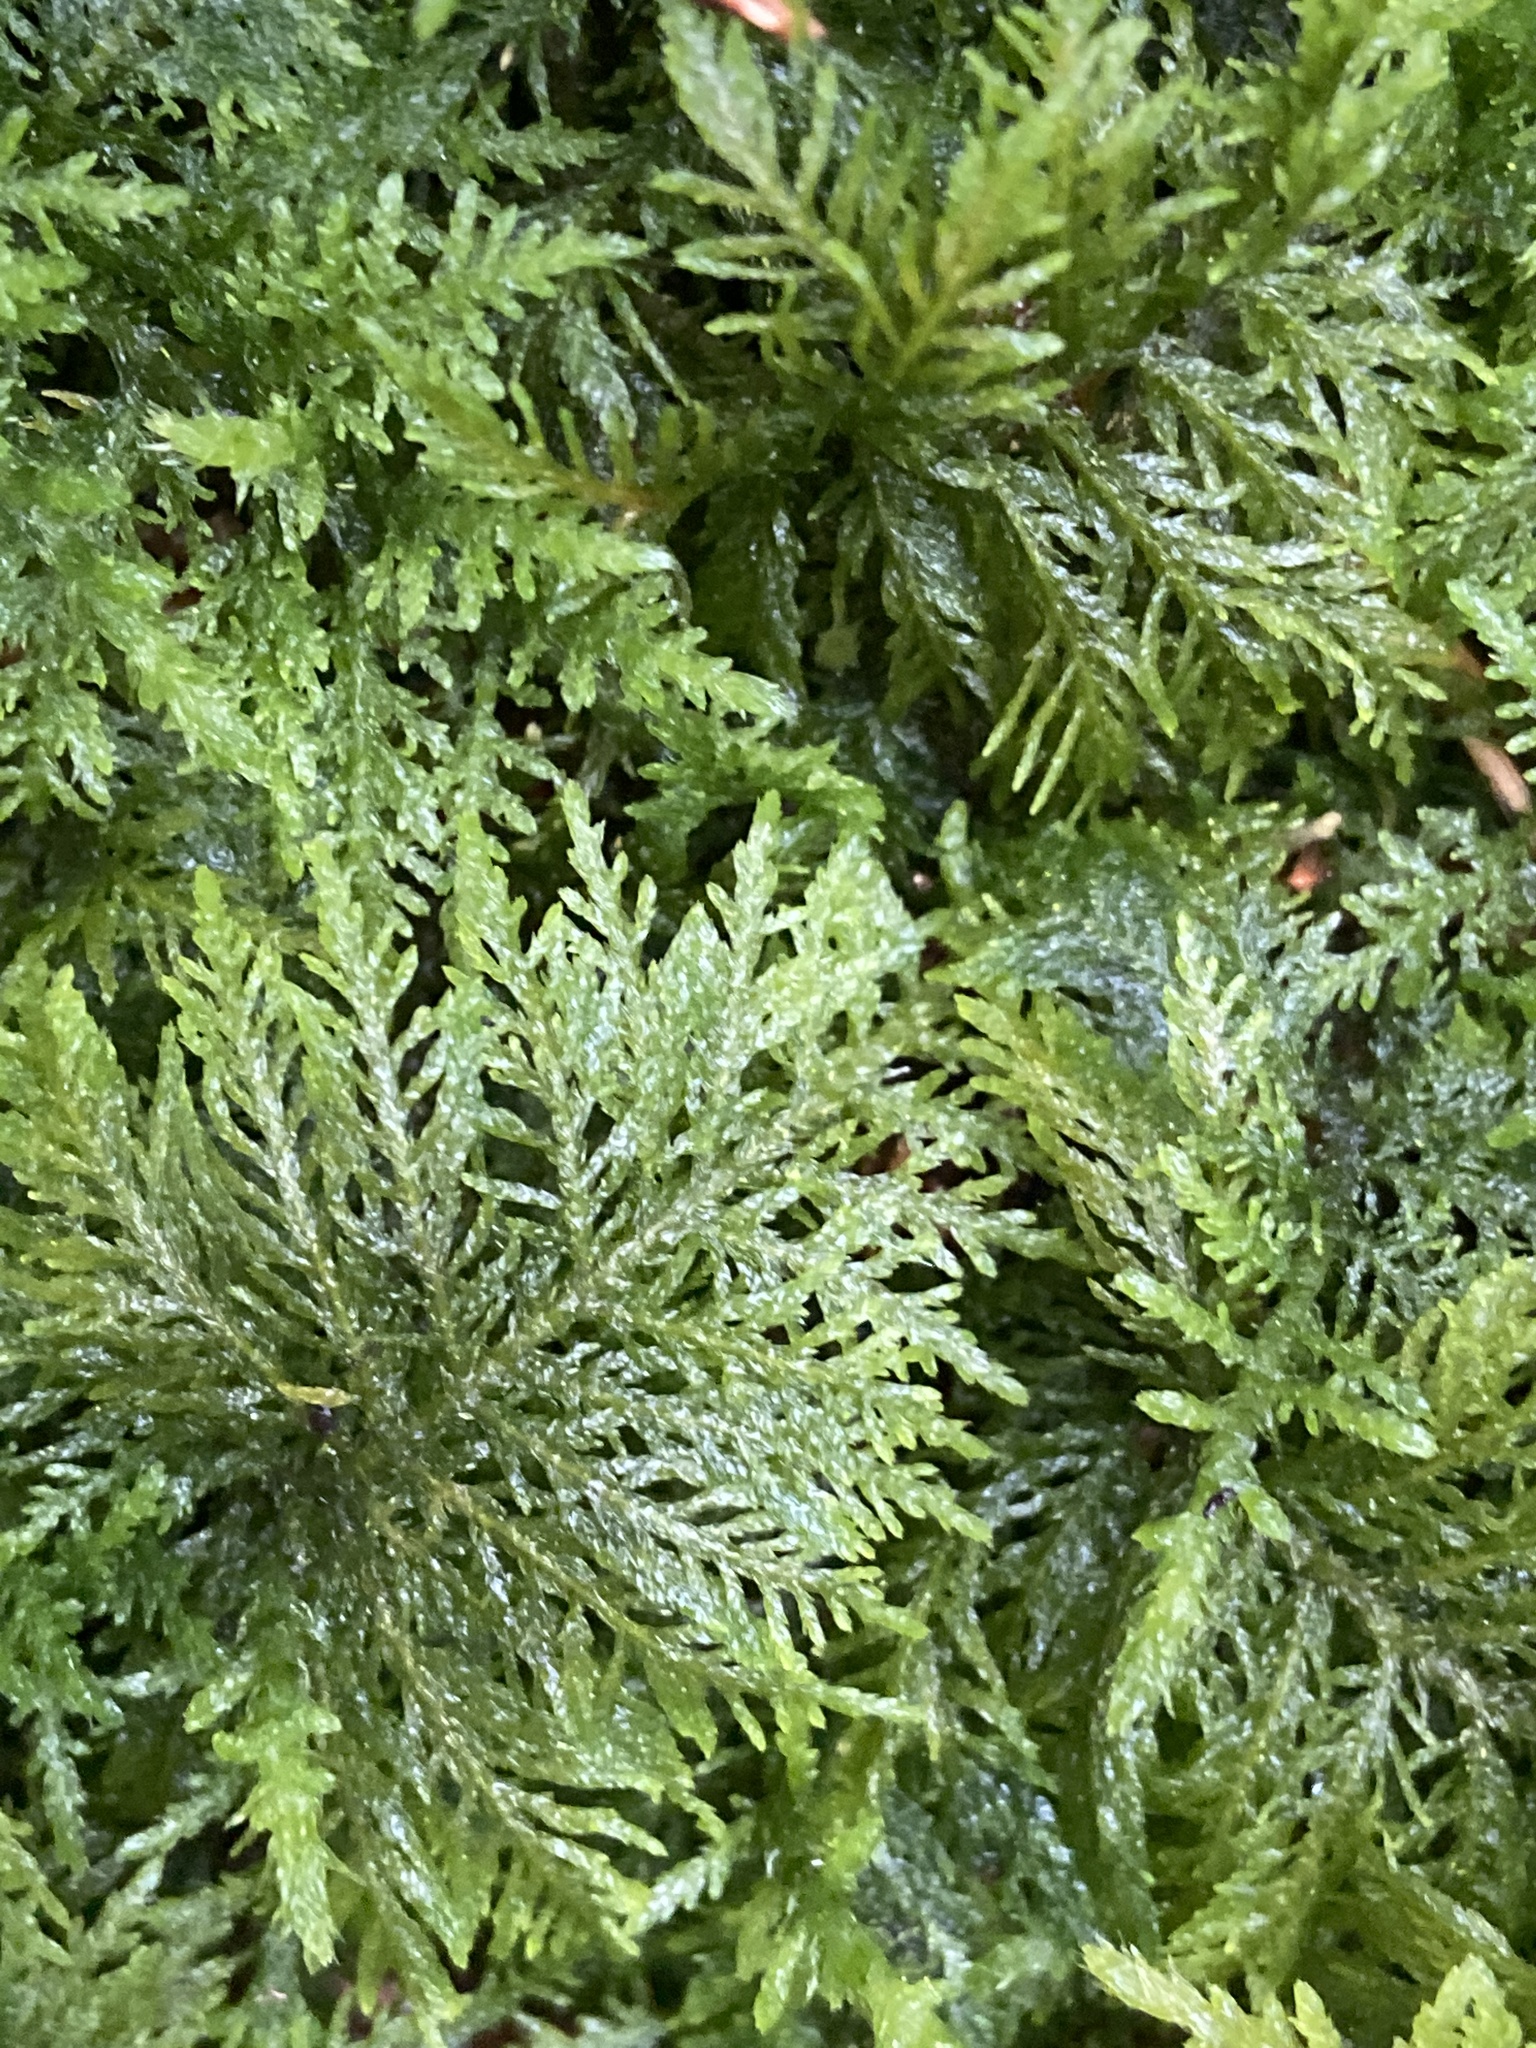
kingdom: Plantae
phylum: Bryophyta
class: Bryopsida
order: Hypnales
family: Thuidiaceae
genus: Thuidium
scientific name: Thuidium tamariscinum
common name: Common tamarisk-moss
